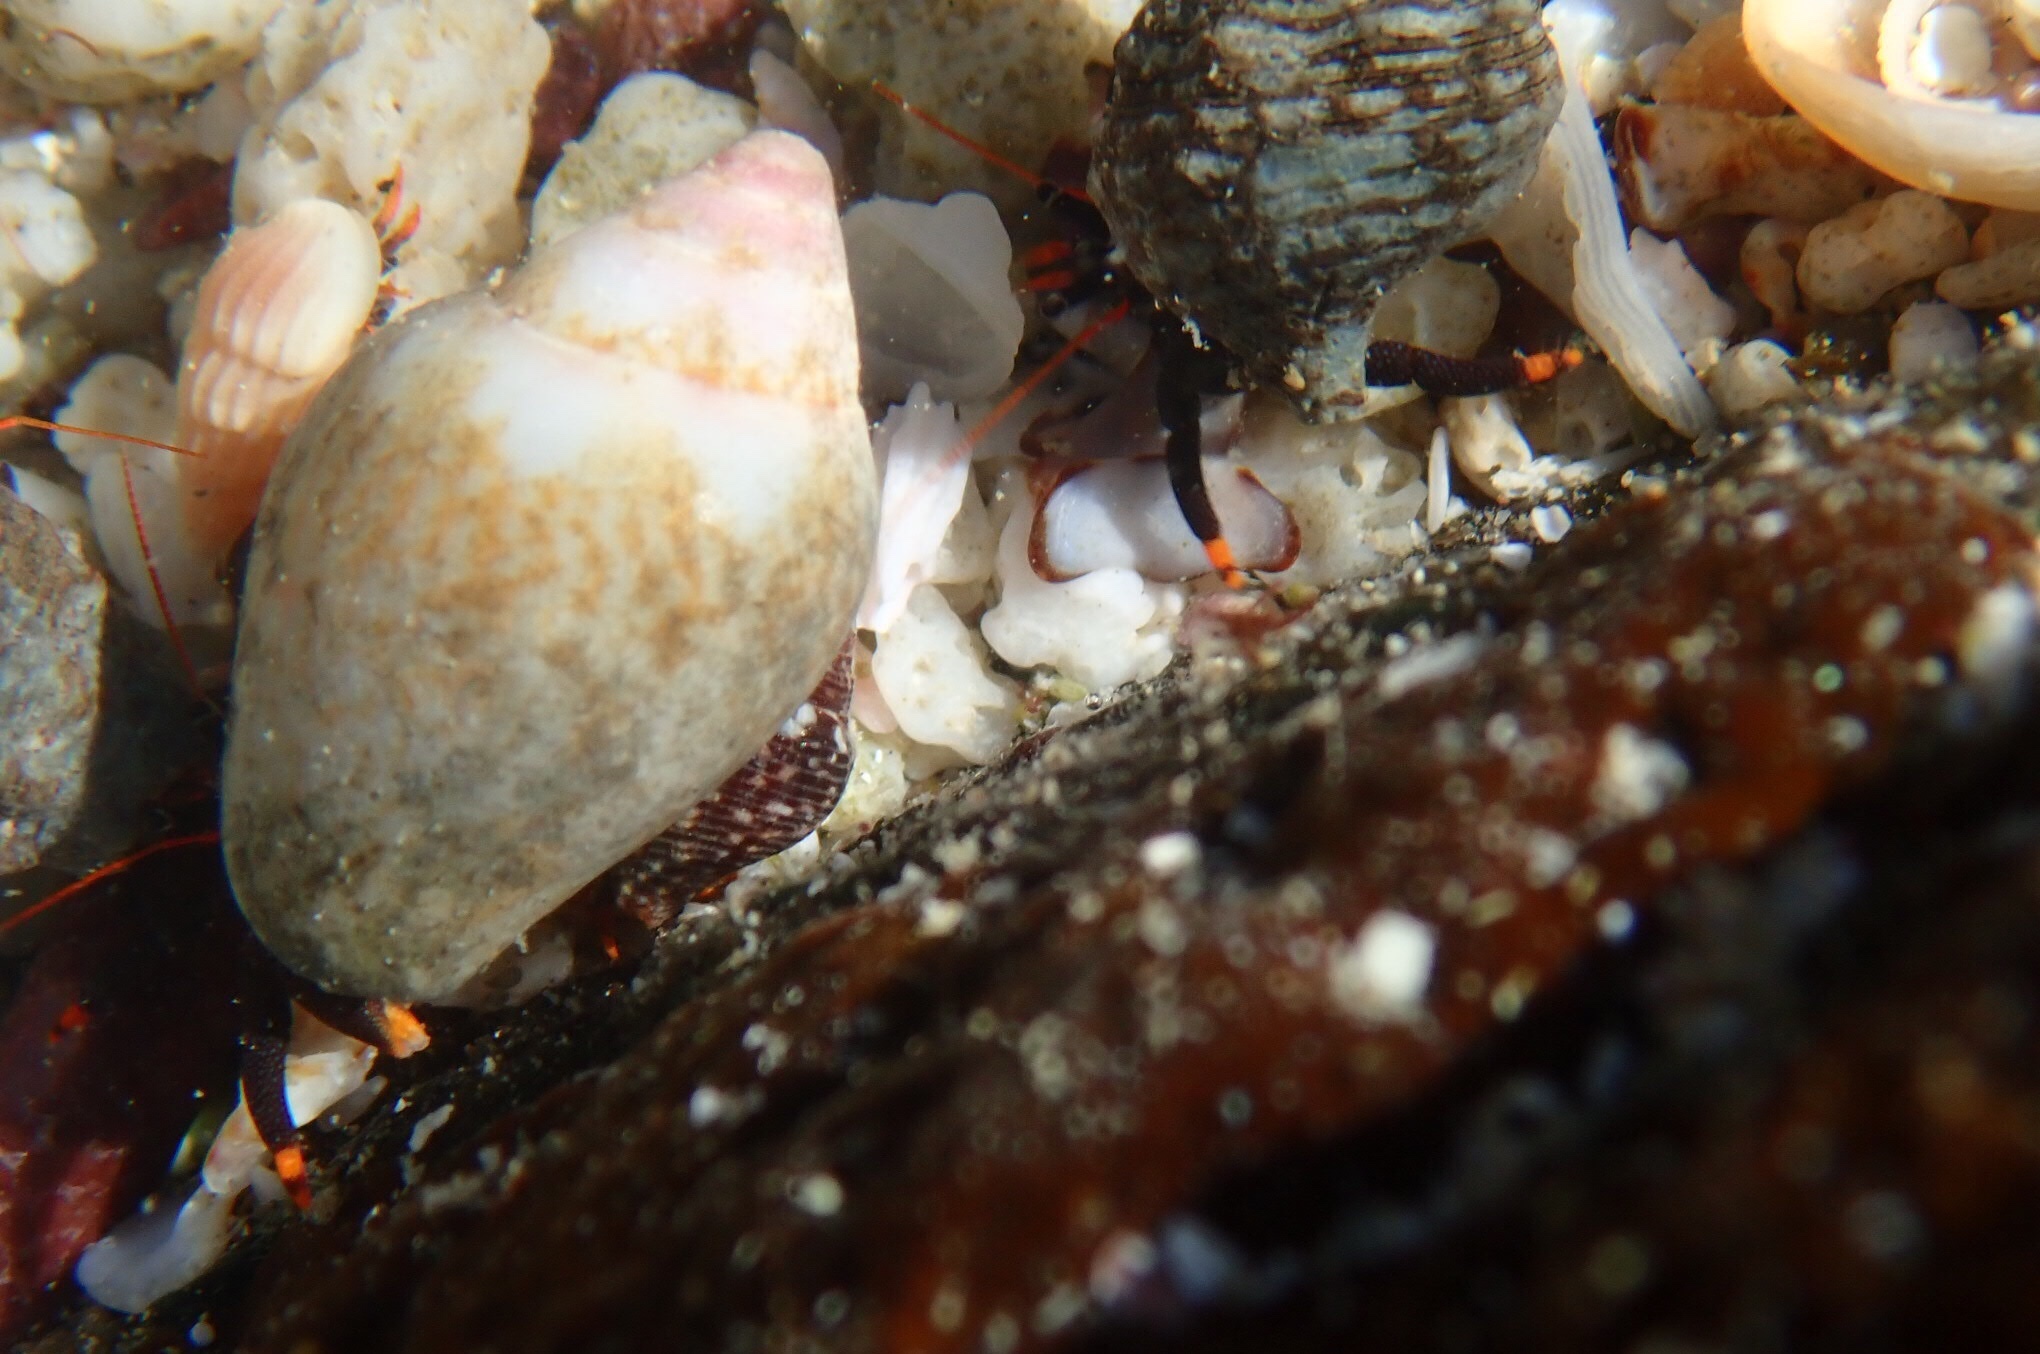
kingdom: Animalia
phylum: Arthropoda
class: Malacostraca
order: Decapoda
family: Diogenidae
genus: Calcinus
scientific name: Calcinus explorator
